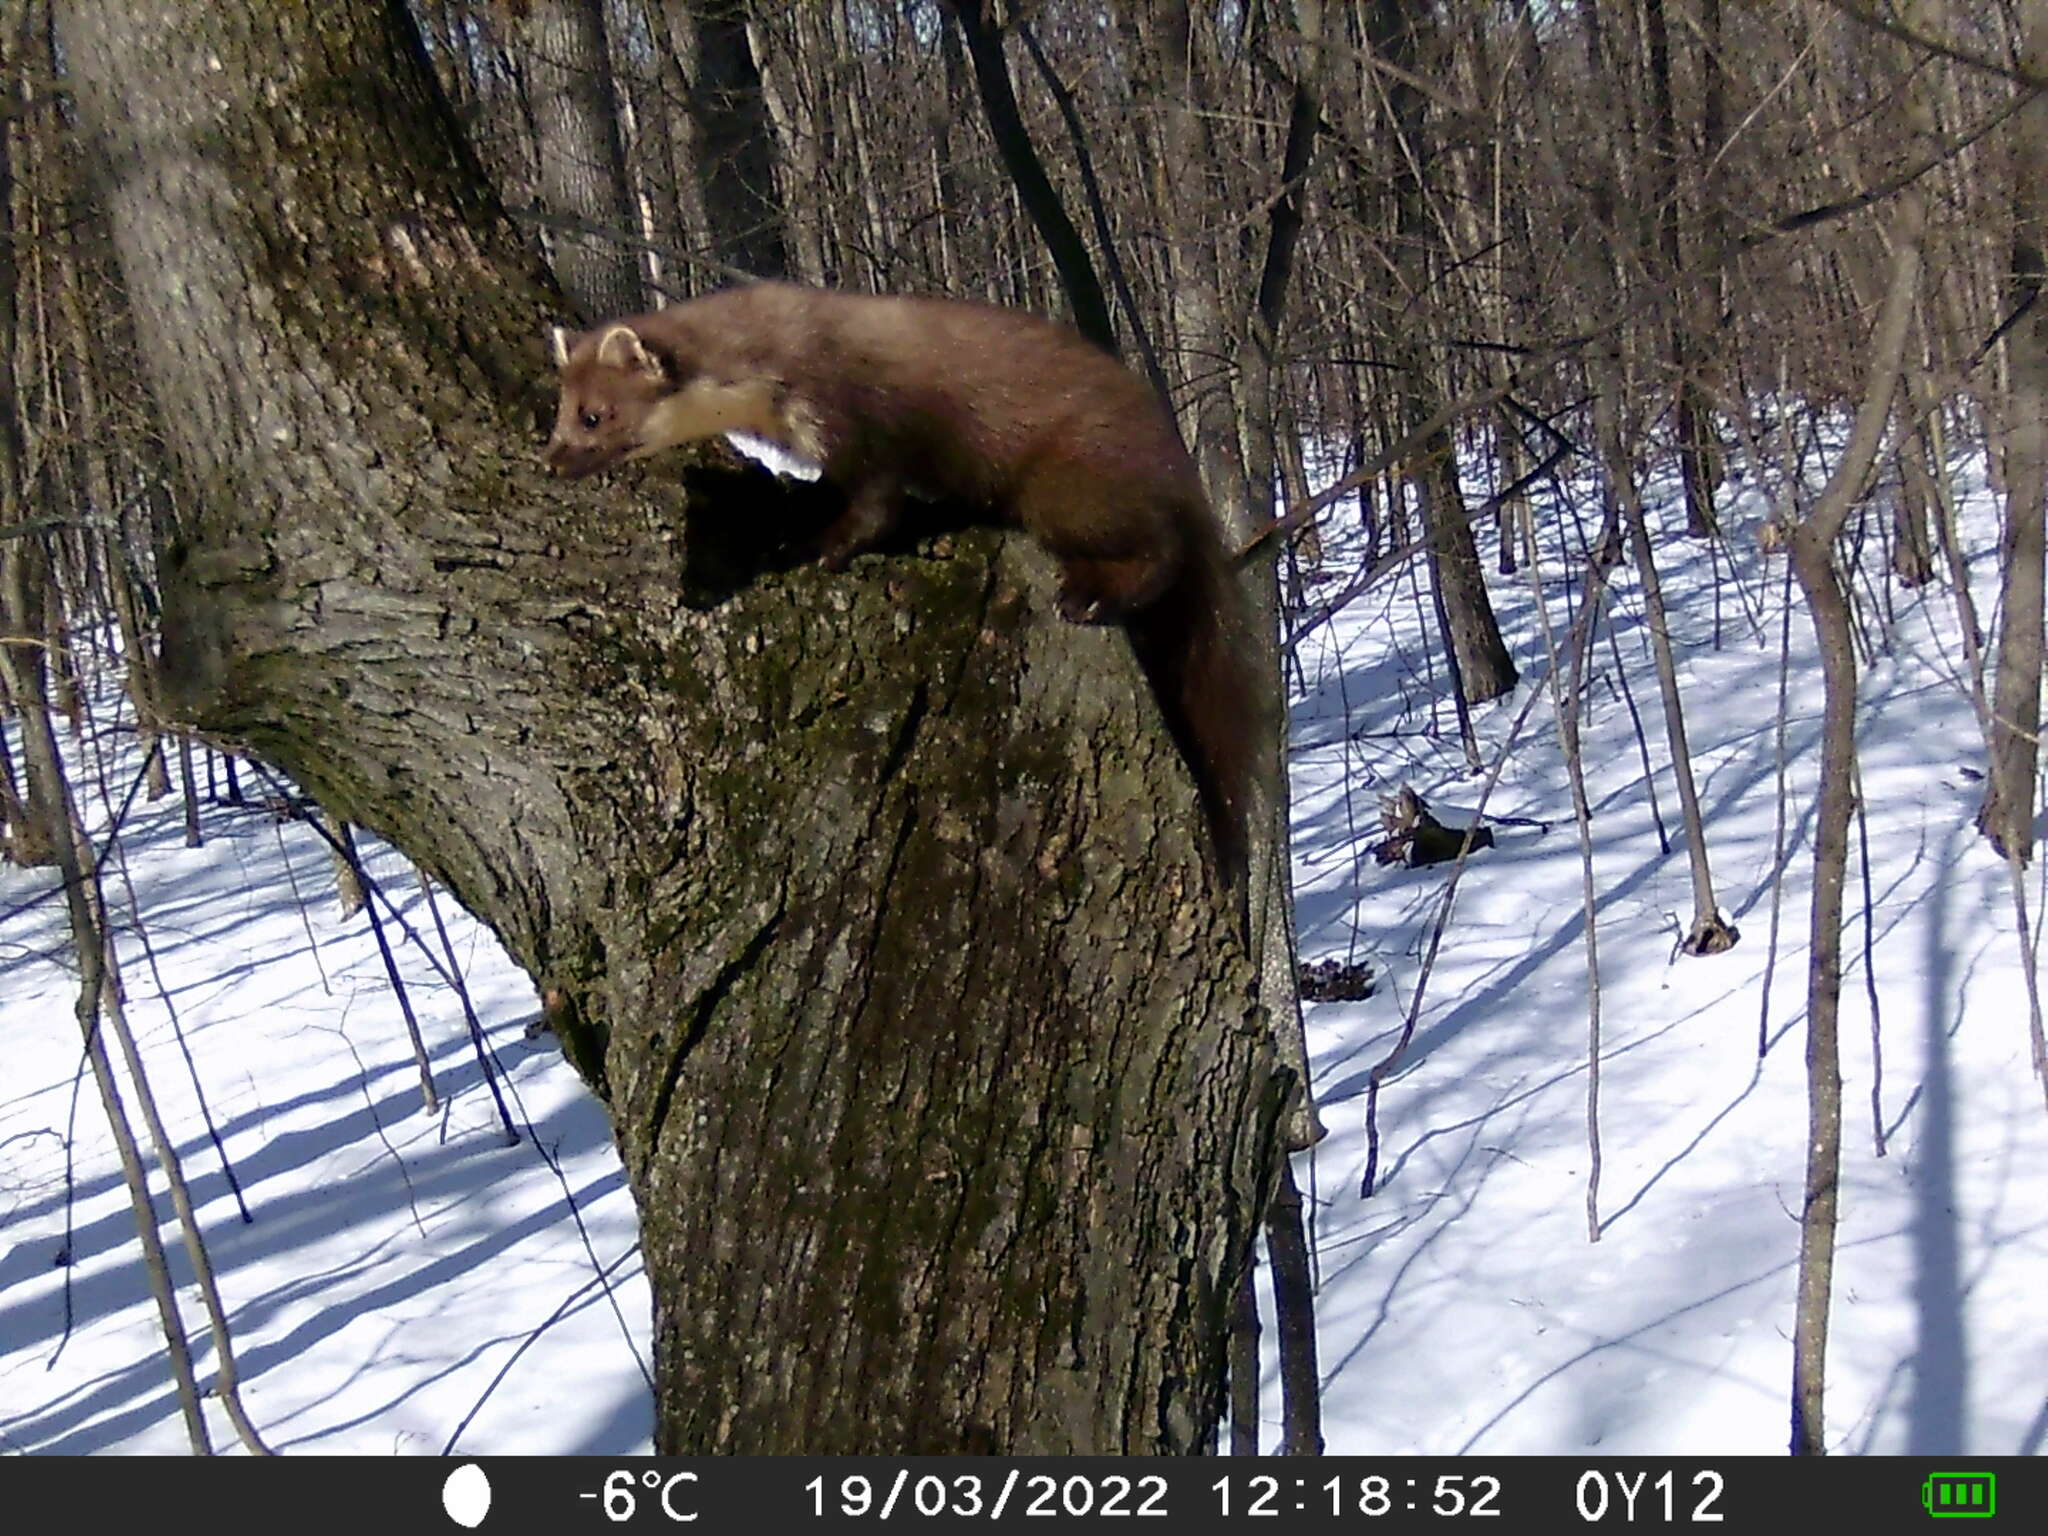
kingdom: Animalia
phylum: Chordata
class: Mammalia
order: Carnivora
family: Mustelidae
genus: Martes
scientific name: Martes martes
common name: European pine marten
